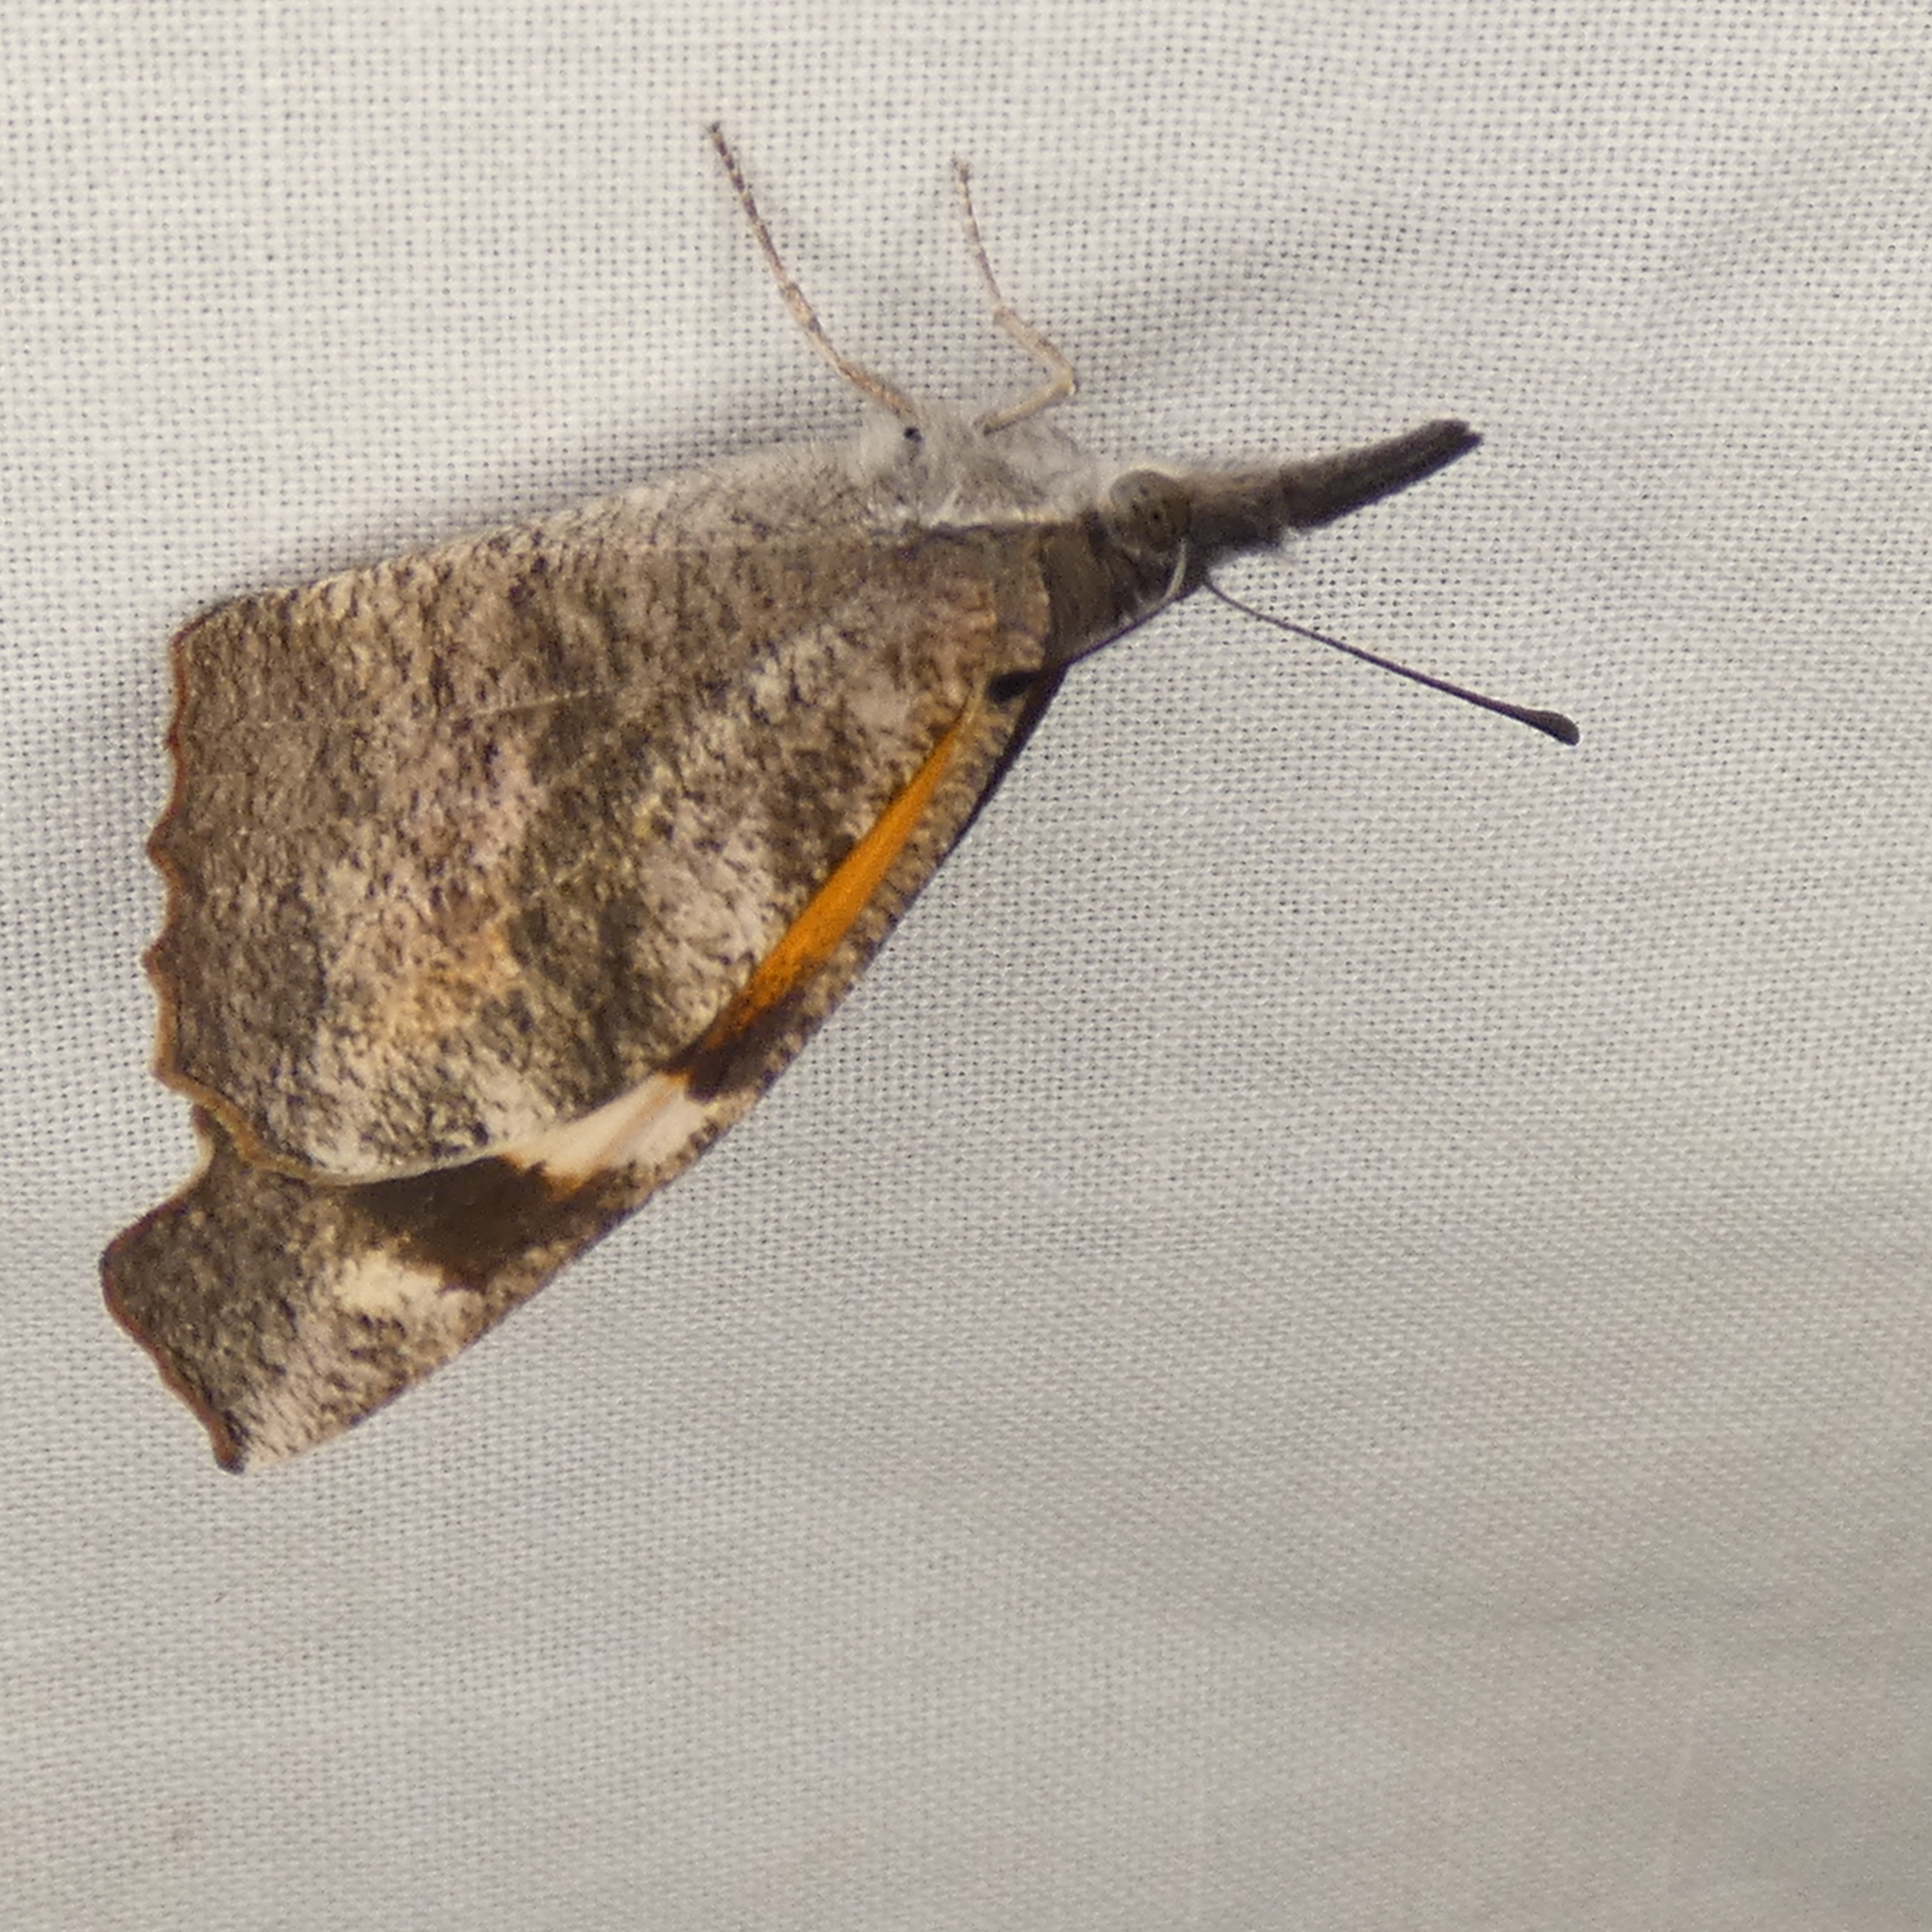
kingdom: Animalia
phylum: Arthropoda
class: Insecta
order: Lepidoptera
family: Nymphalidae
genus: Libytheana
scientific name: Libytheana carinenta
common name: American snout
